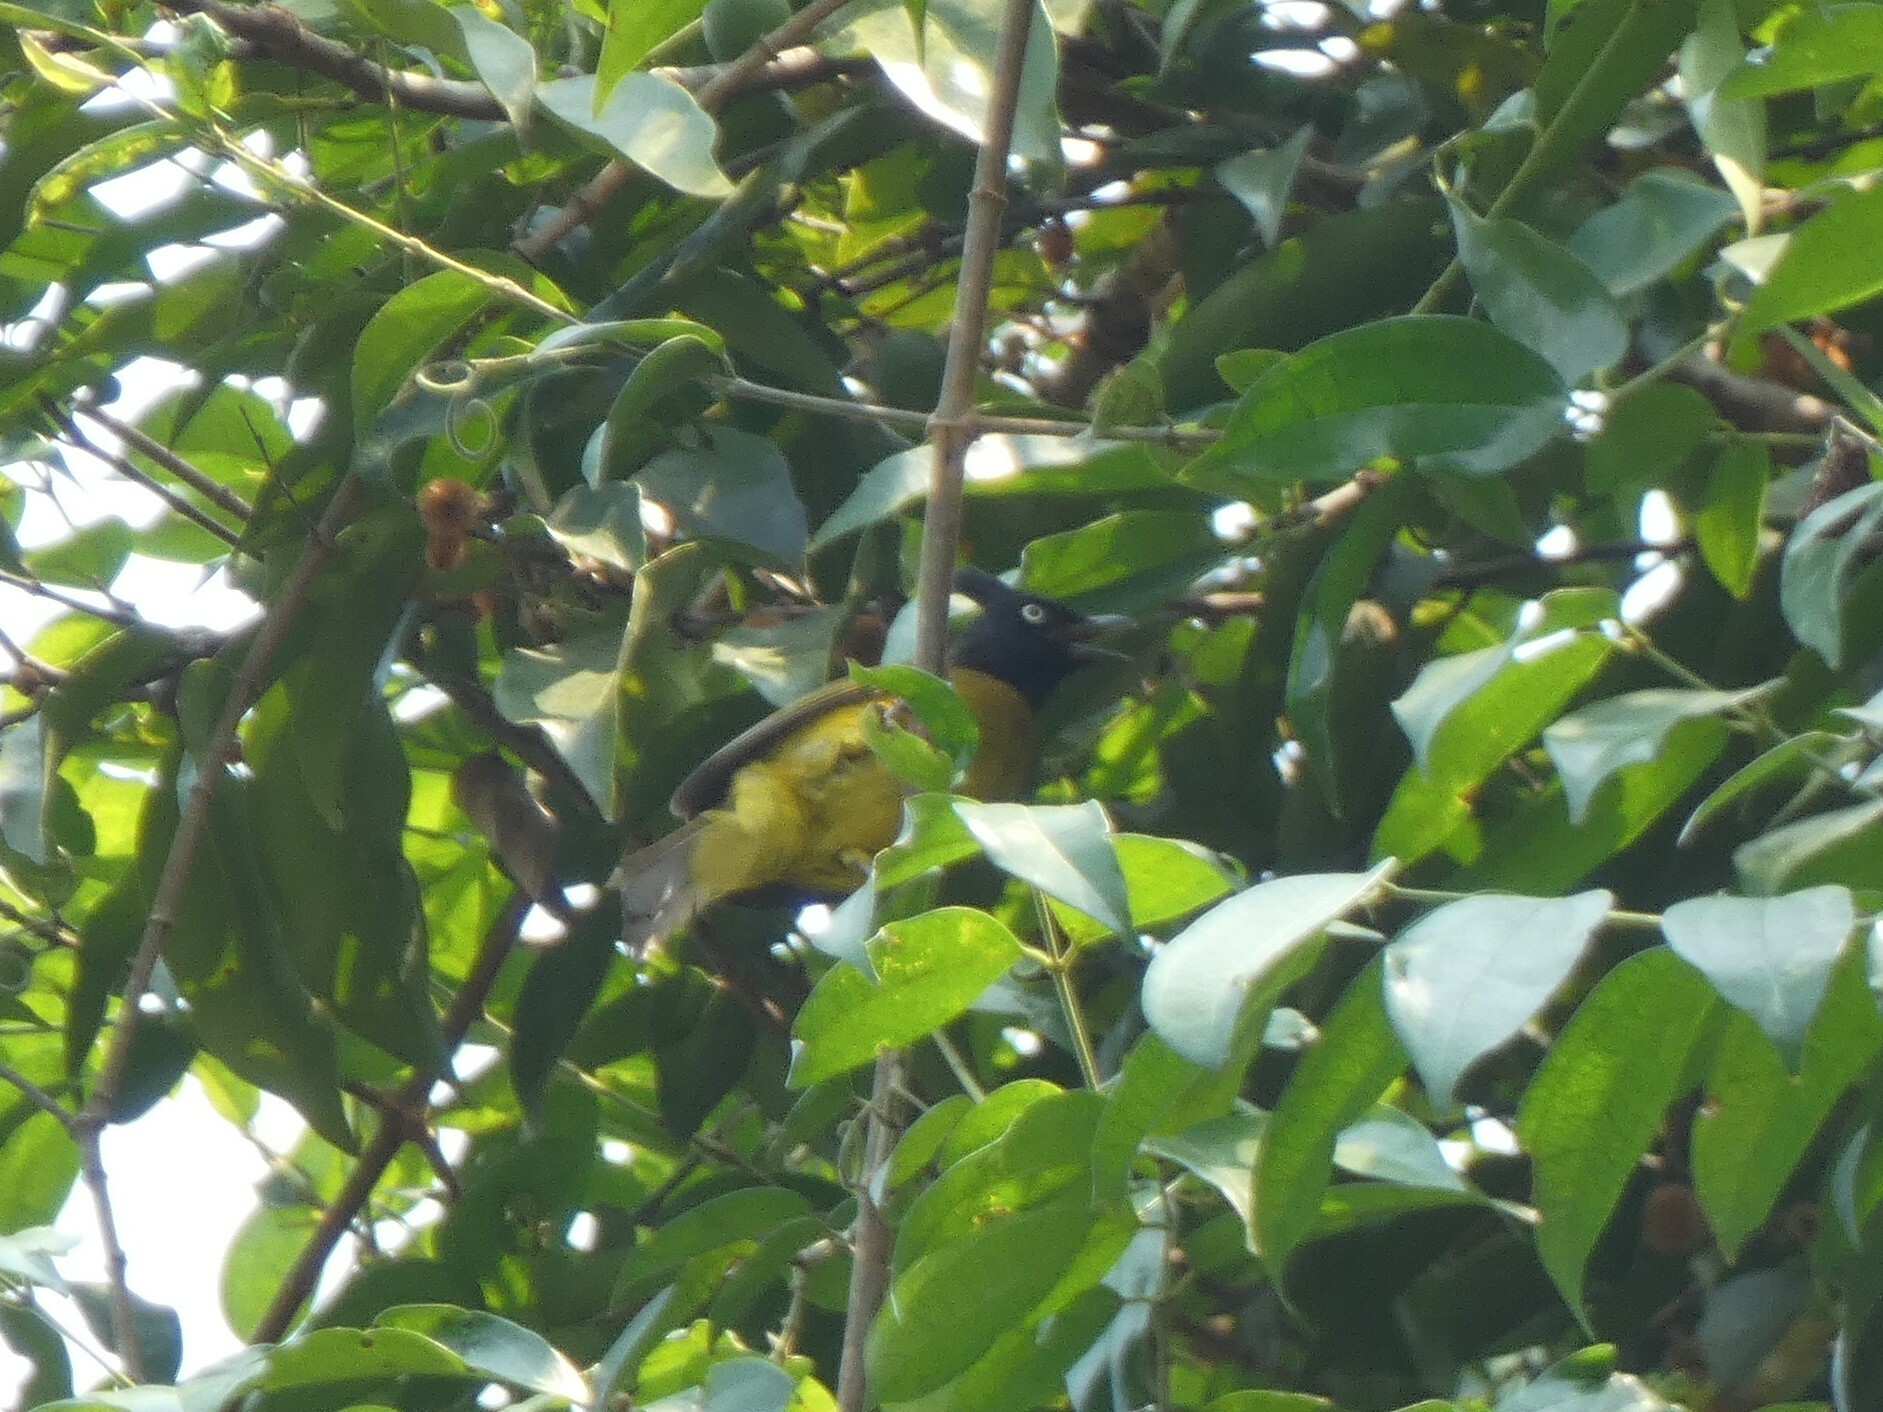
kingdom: Animalia
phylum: Chordata
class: Aves
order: Passeriformes
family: Pycnonotidae
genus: Pycnonotus
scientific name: Pycnonotus flaviventris
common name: Black-crested bulbul
